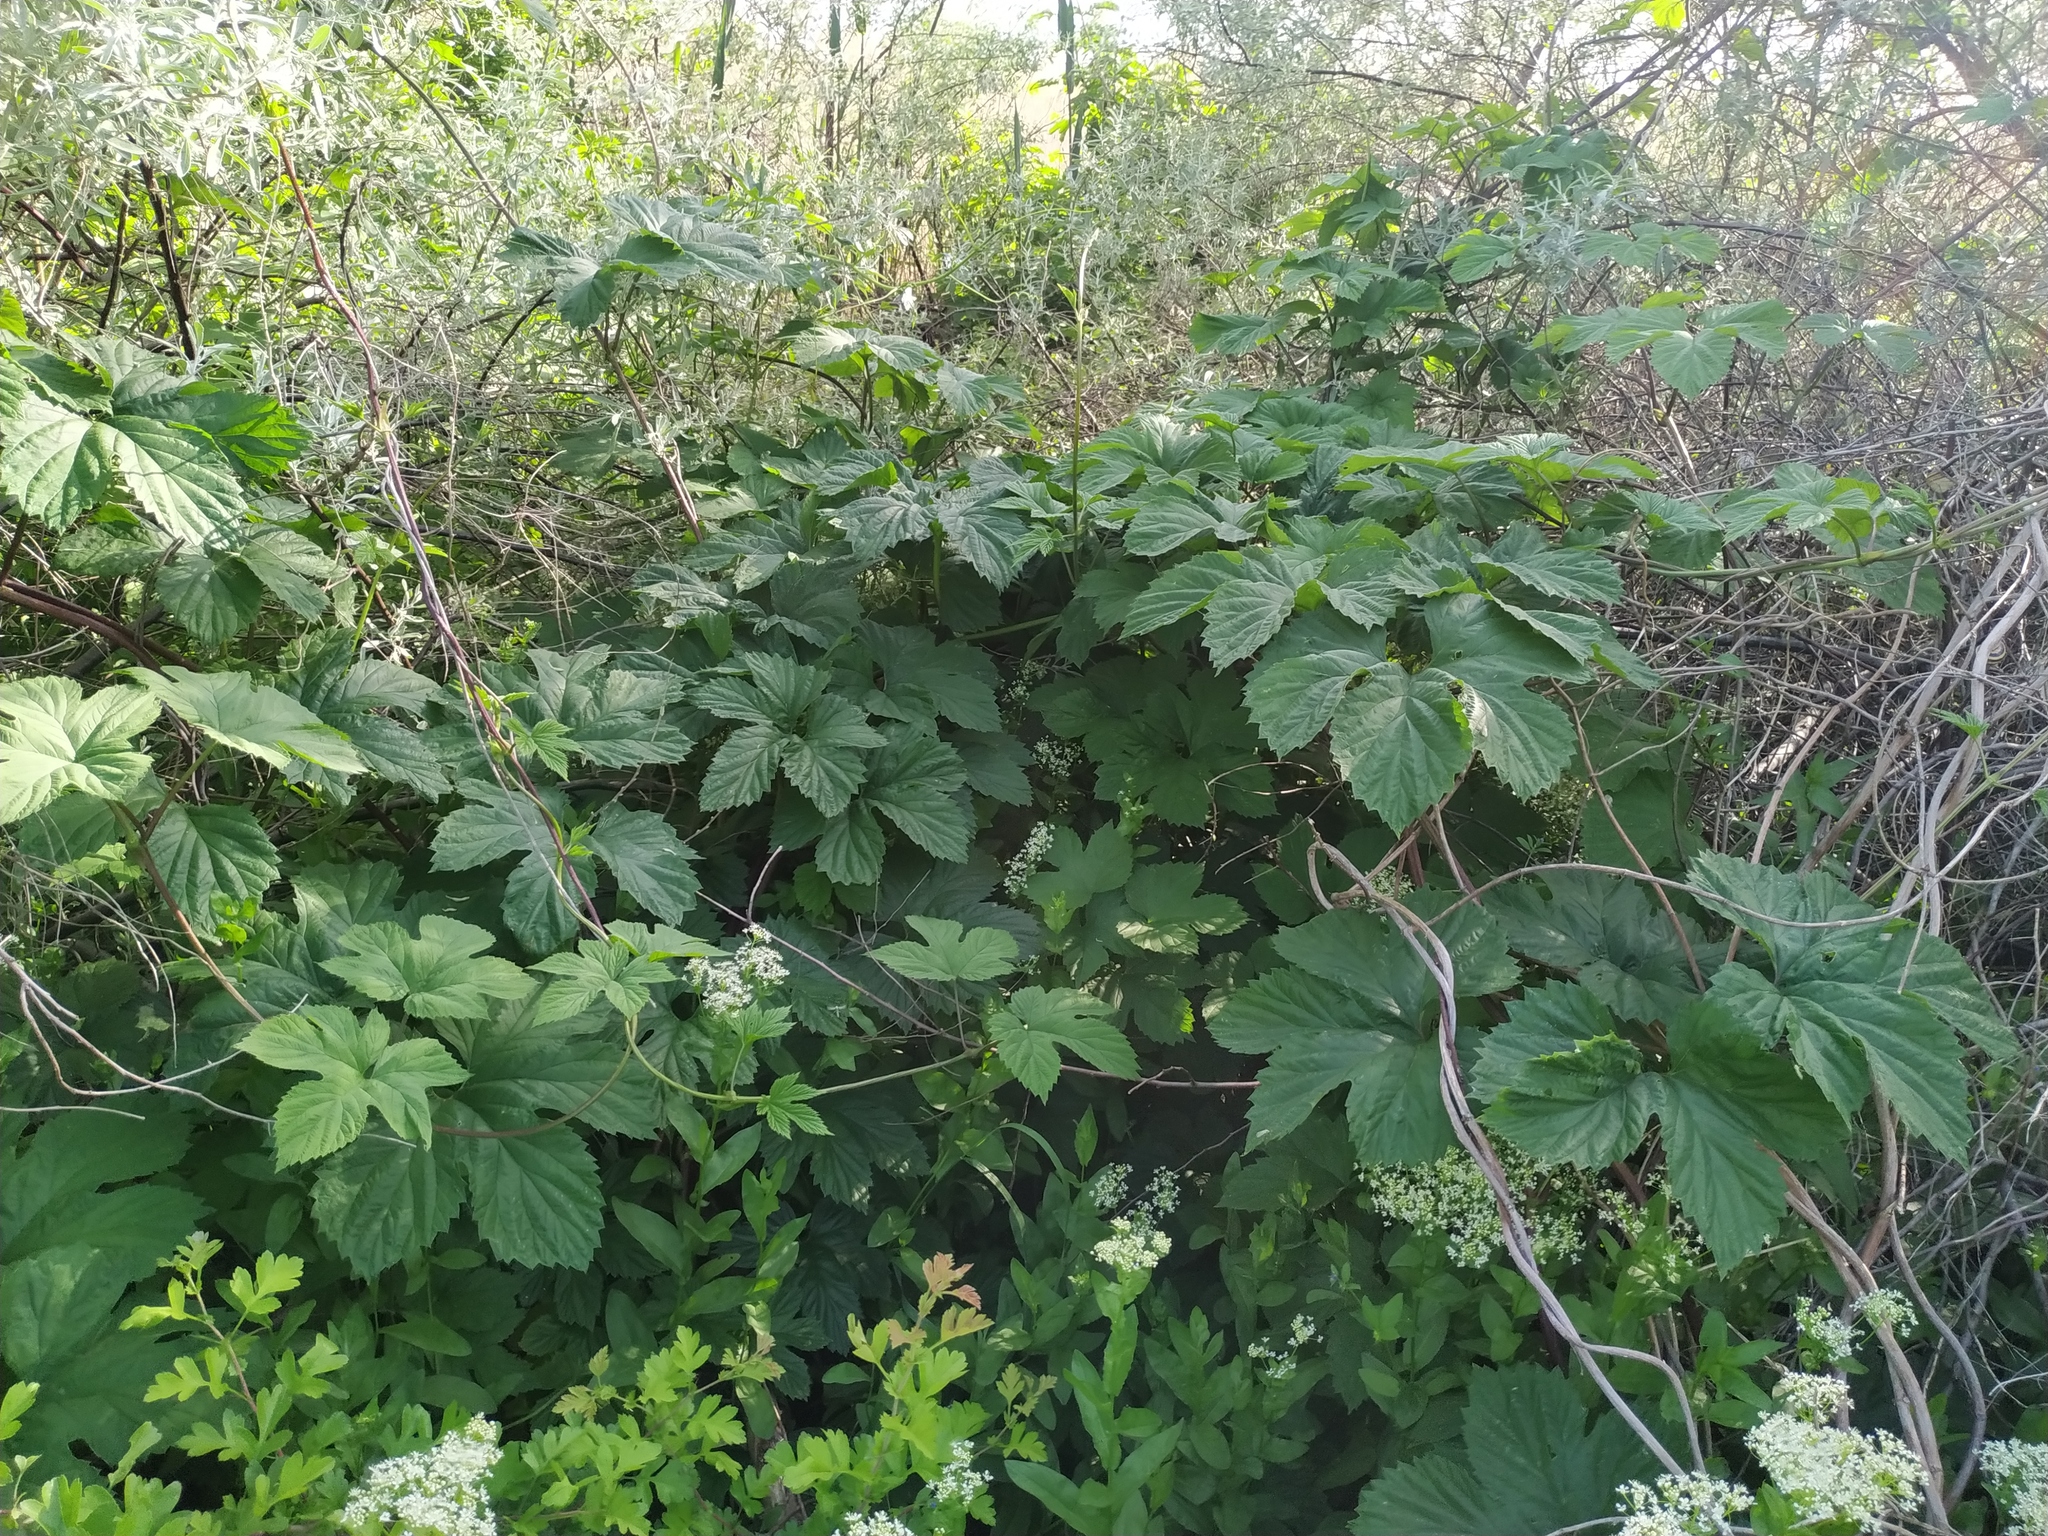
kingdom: Plantae
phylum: Tracheophyta
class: Magnoliopsida
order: Rosales
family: Cannabaceae
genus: Humulus
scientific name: Humulus lupulus
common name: Hop
